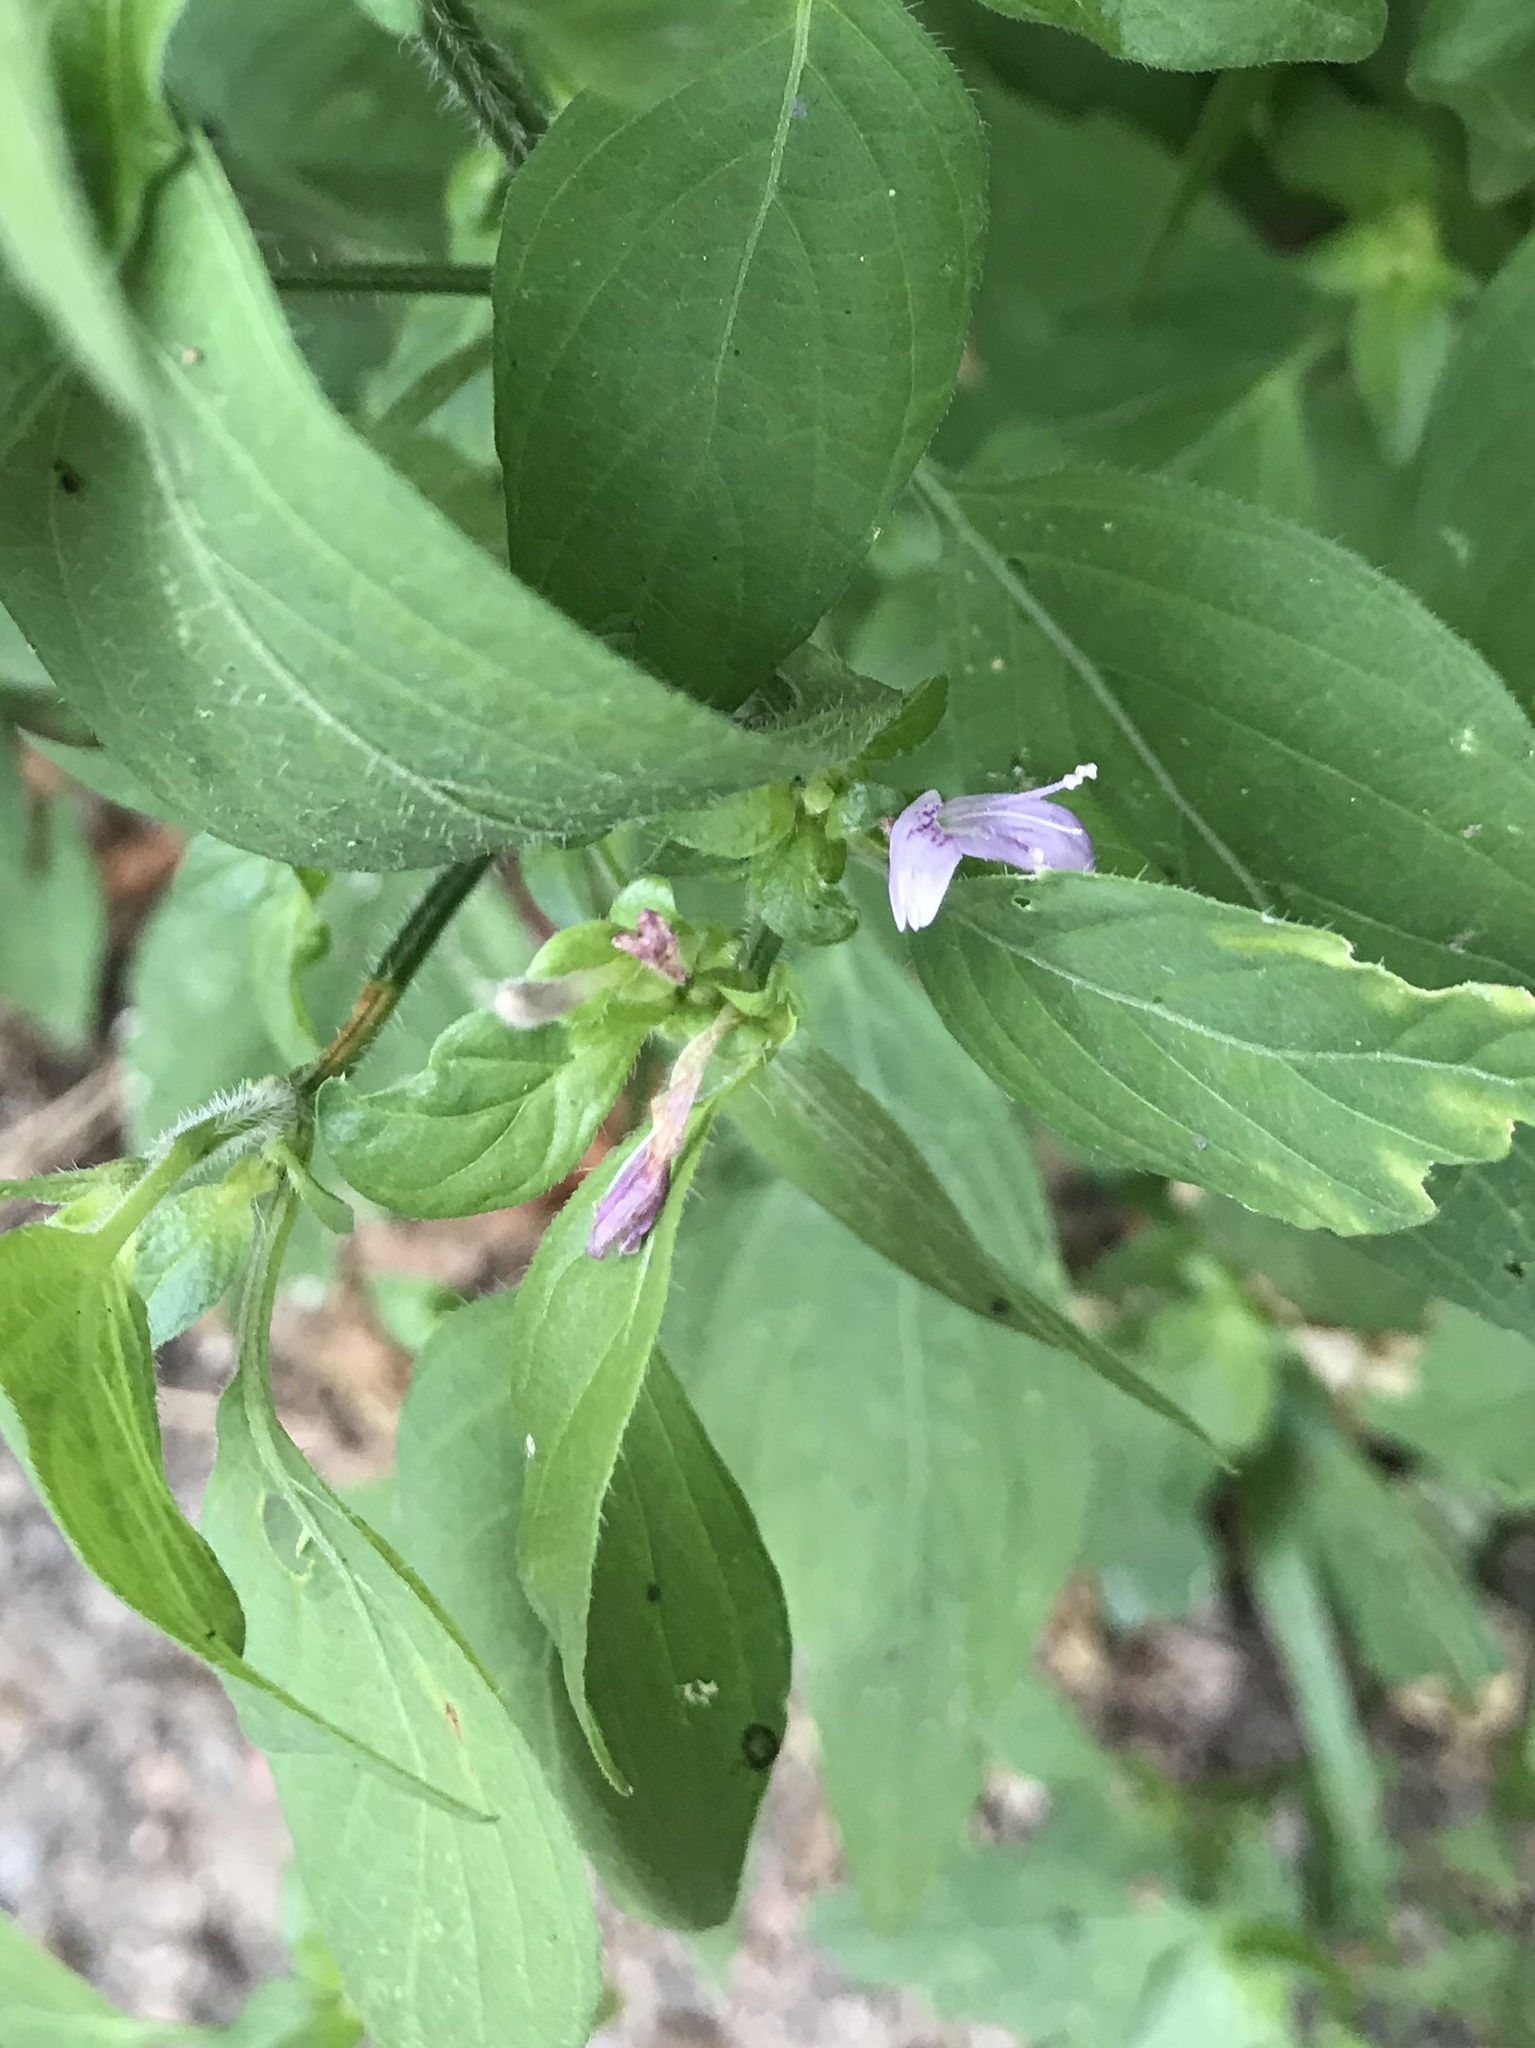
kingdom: Plantae
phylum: Tracheophyta
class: Magnoliopsida
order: Lamiales
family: Acanthaceae
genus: Dicliptera
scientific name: Dicliptera brachiata
